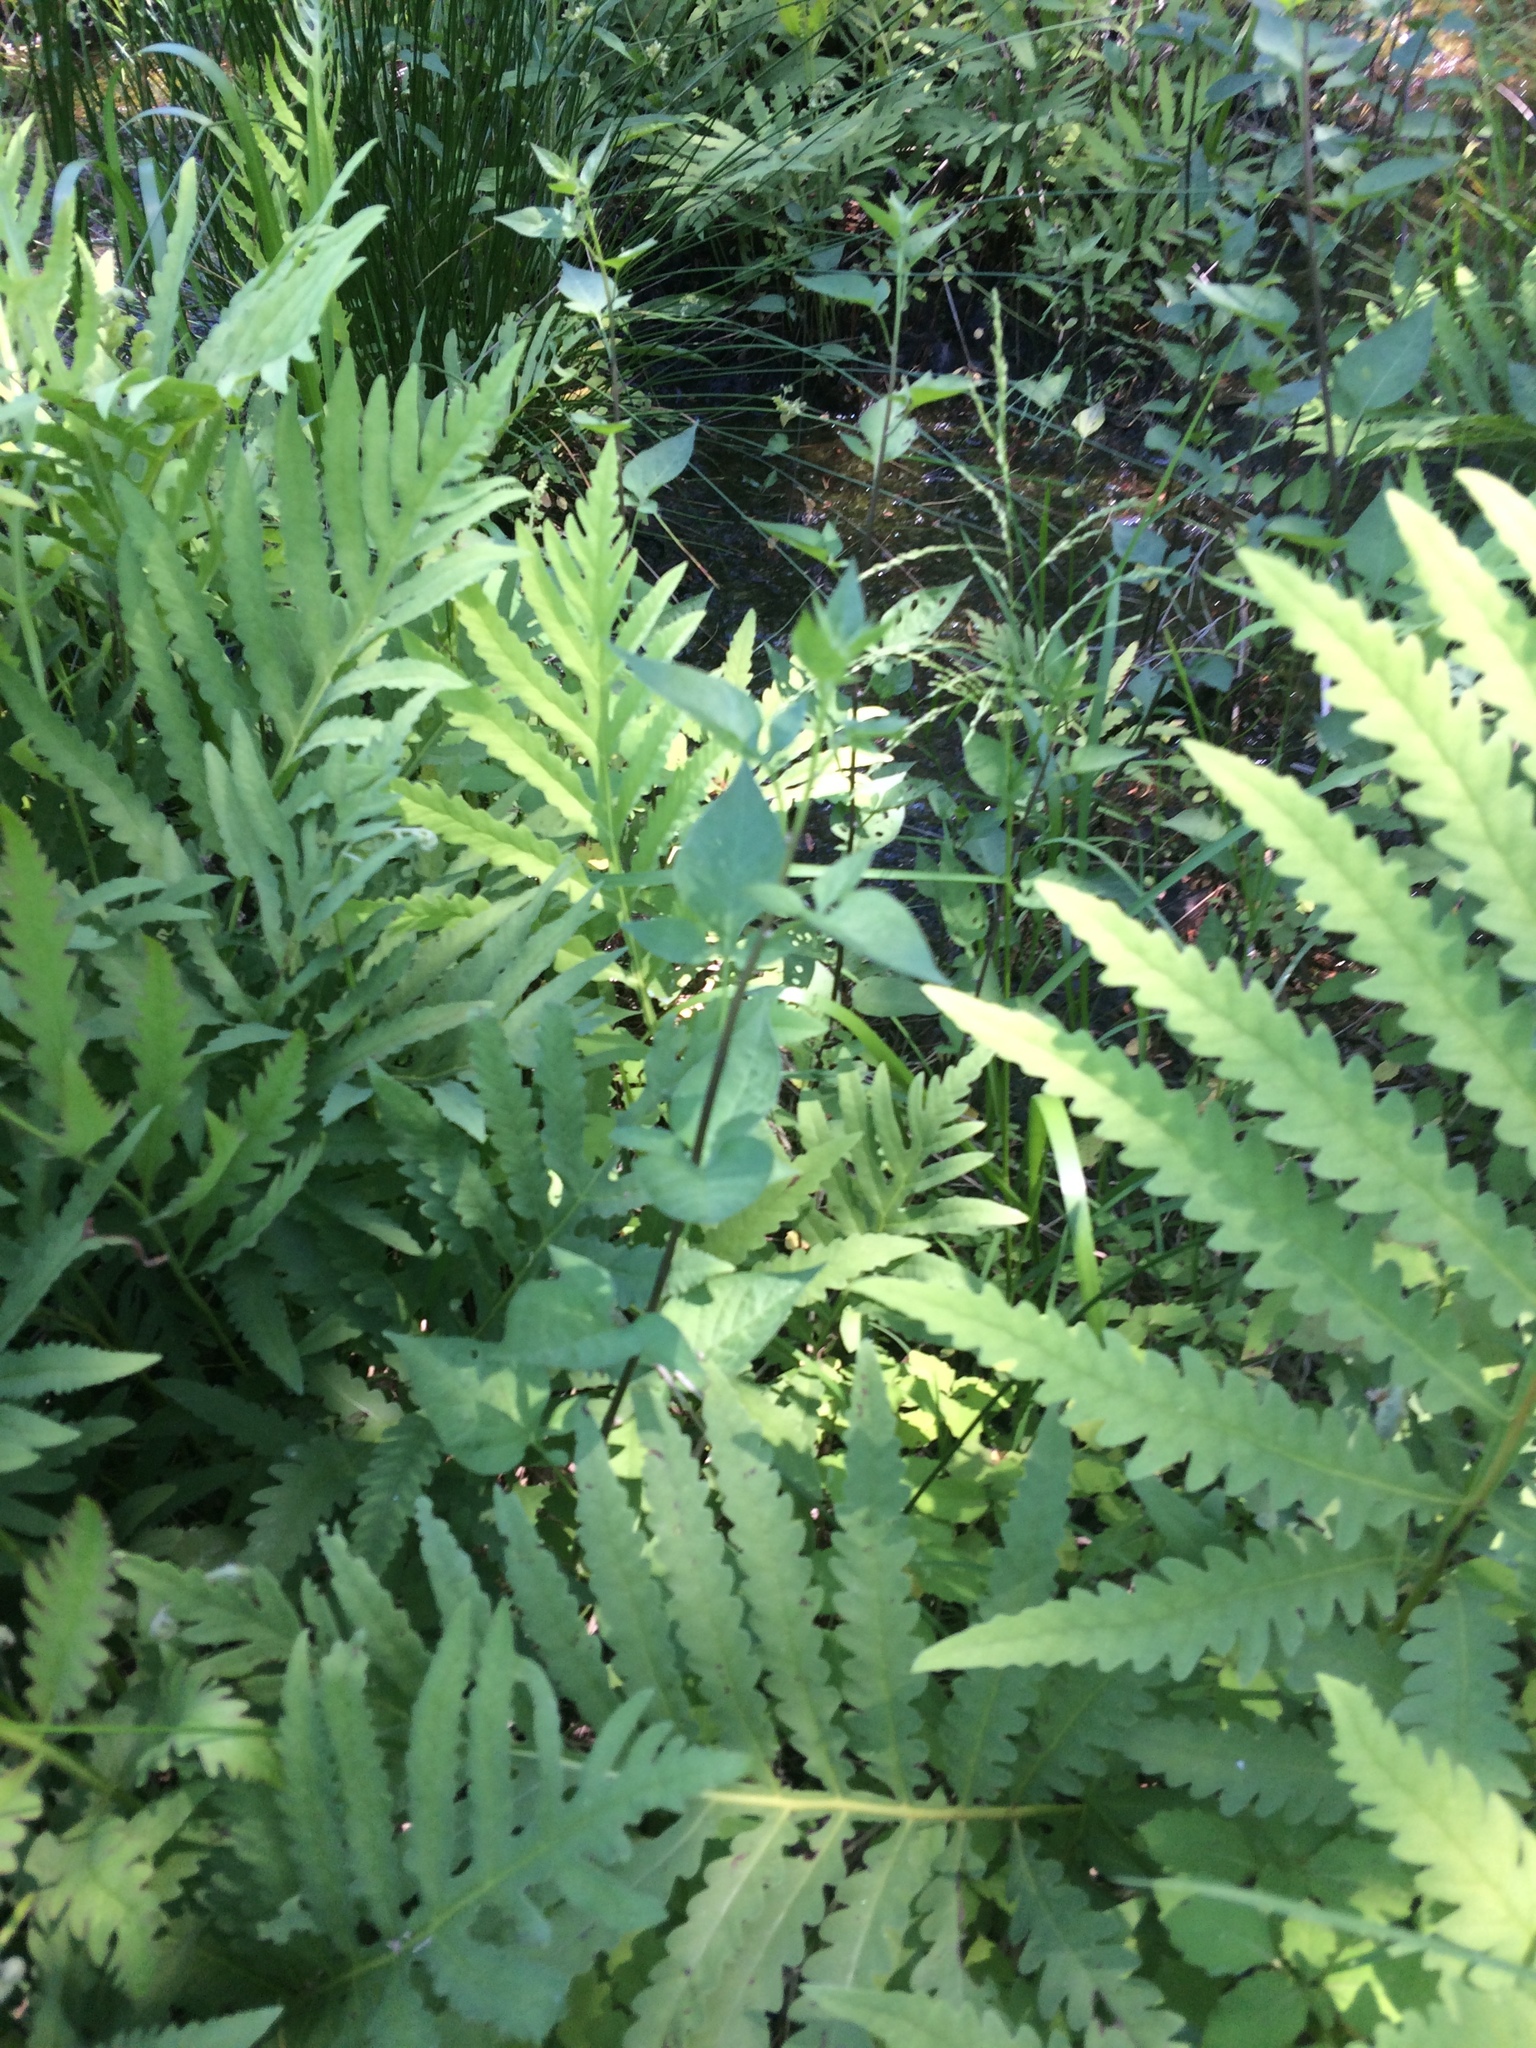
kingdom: Plantae
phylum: Tracheophyta
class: Magnoliopsida
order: Solanales
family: Solanaceae
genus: Solanum
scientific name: Solanum dulcamara
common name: Climbing nightshade
